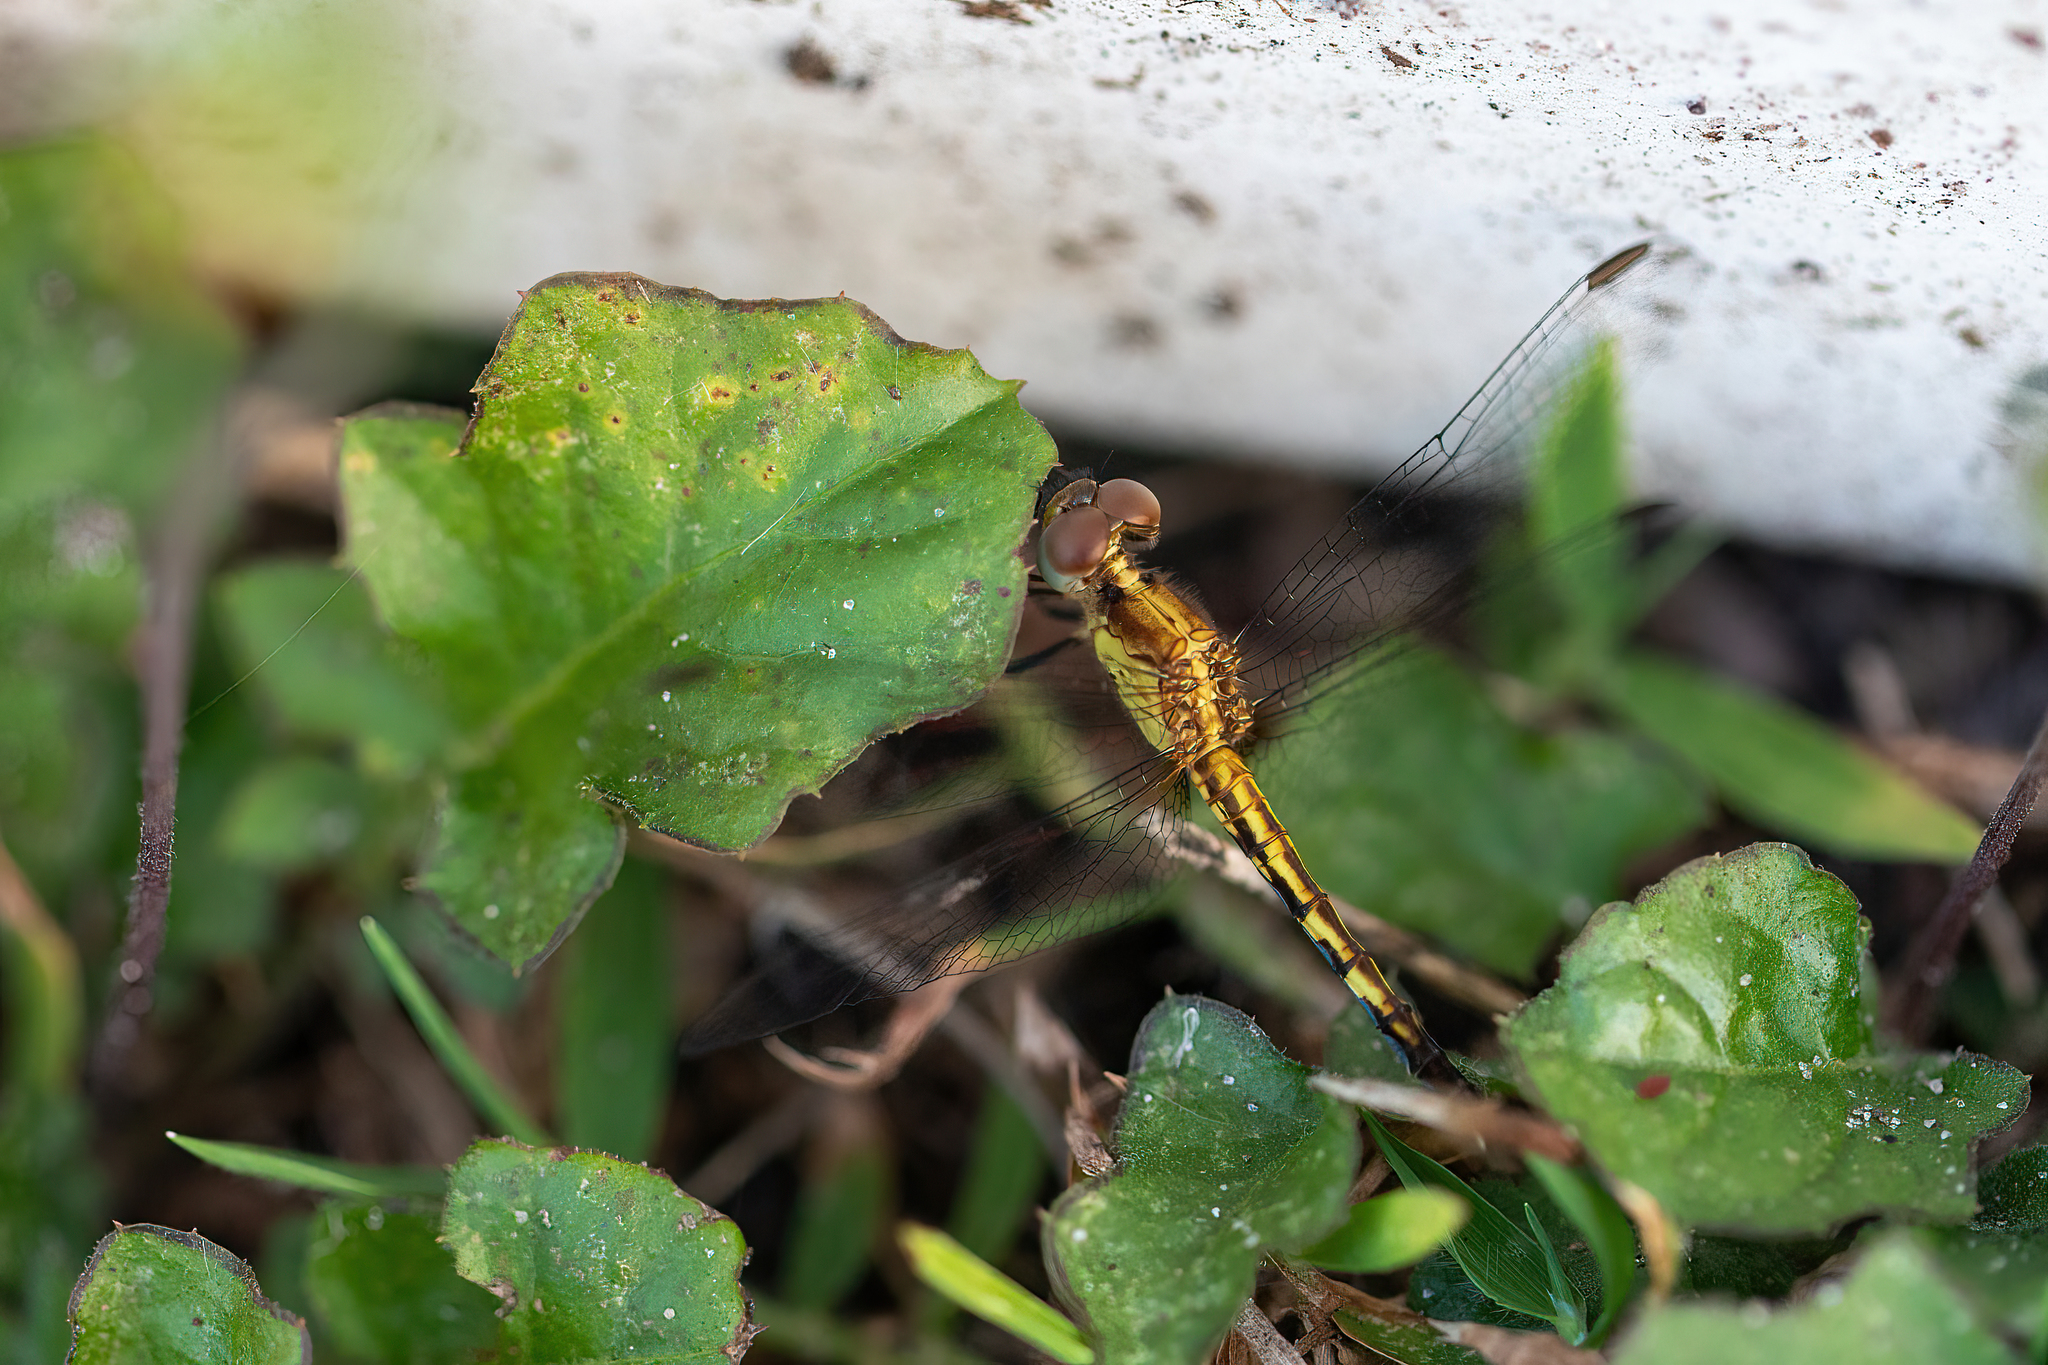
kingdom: Animalia
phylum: Arthropoda
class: Insecta
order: Odonata
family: Libellulidae
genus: Erythrodiplax
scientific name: Erythrodiplax minuscula
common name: Little blue dragonlet
